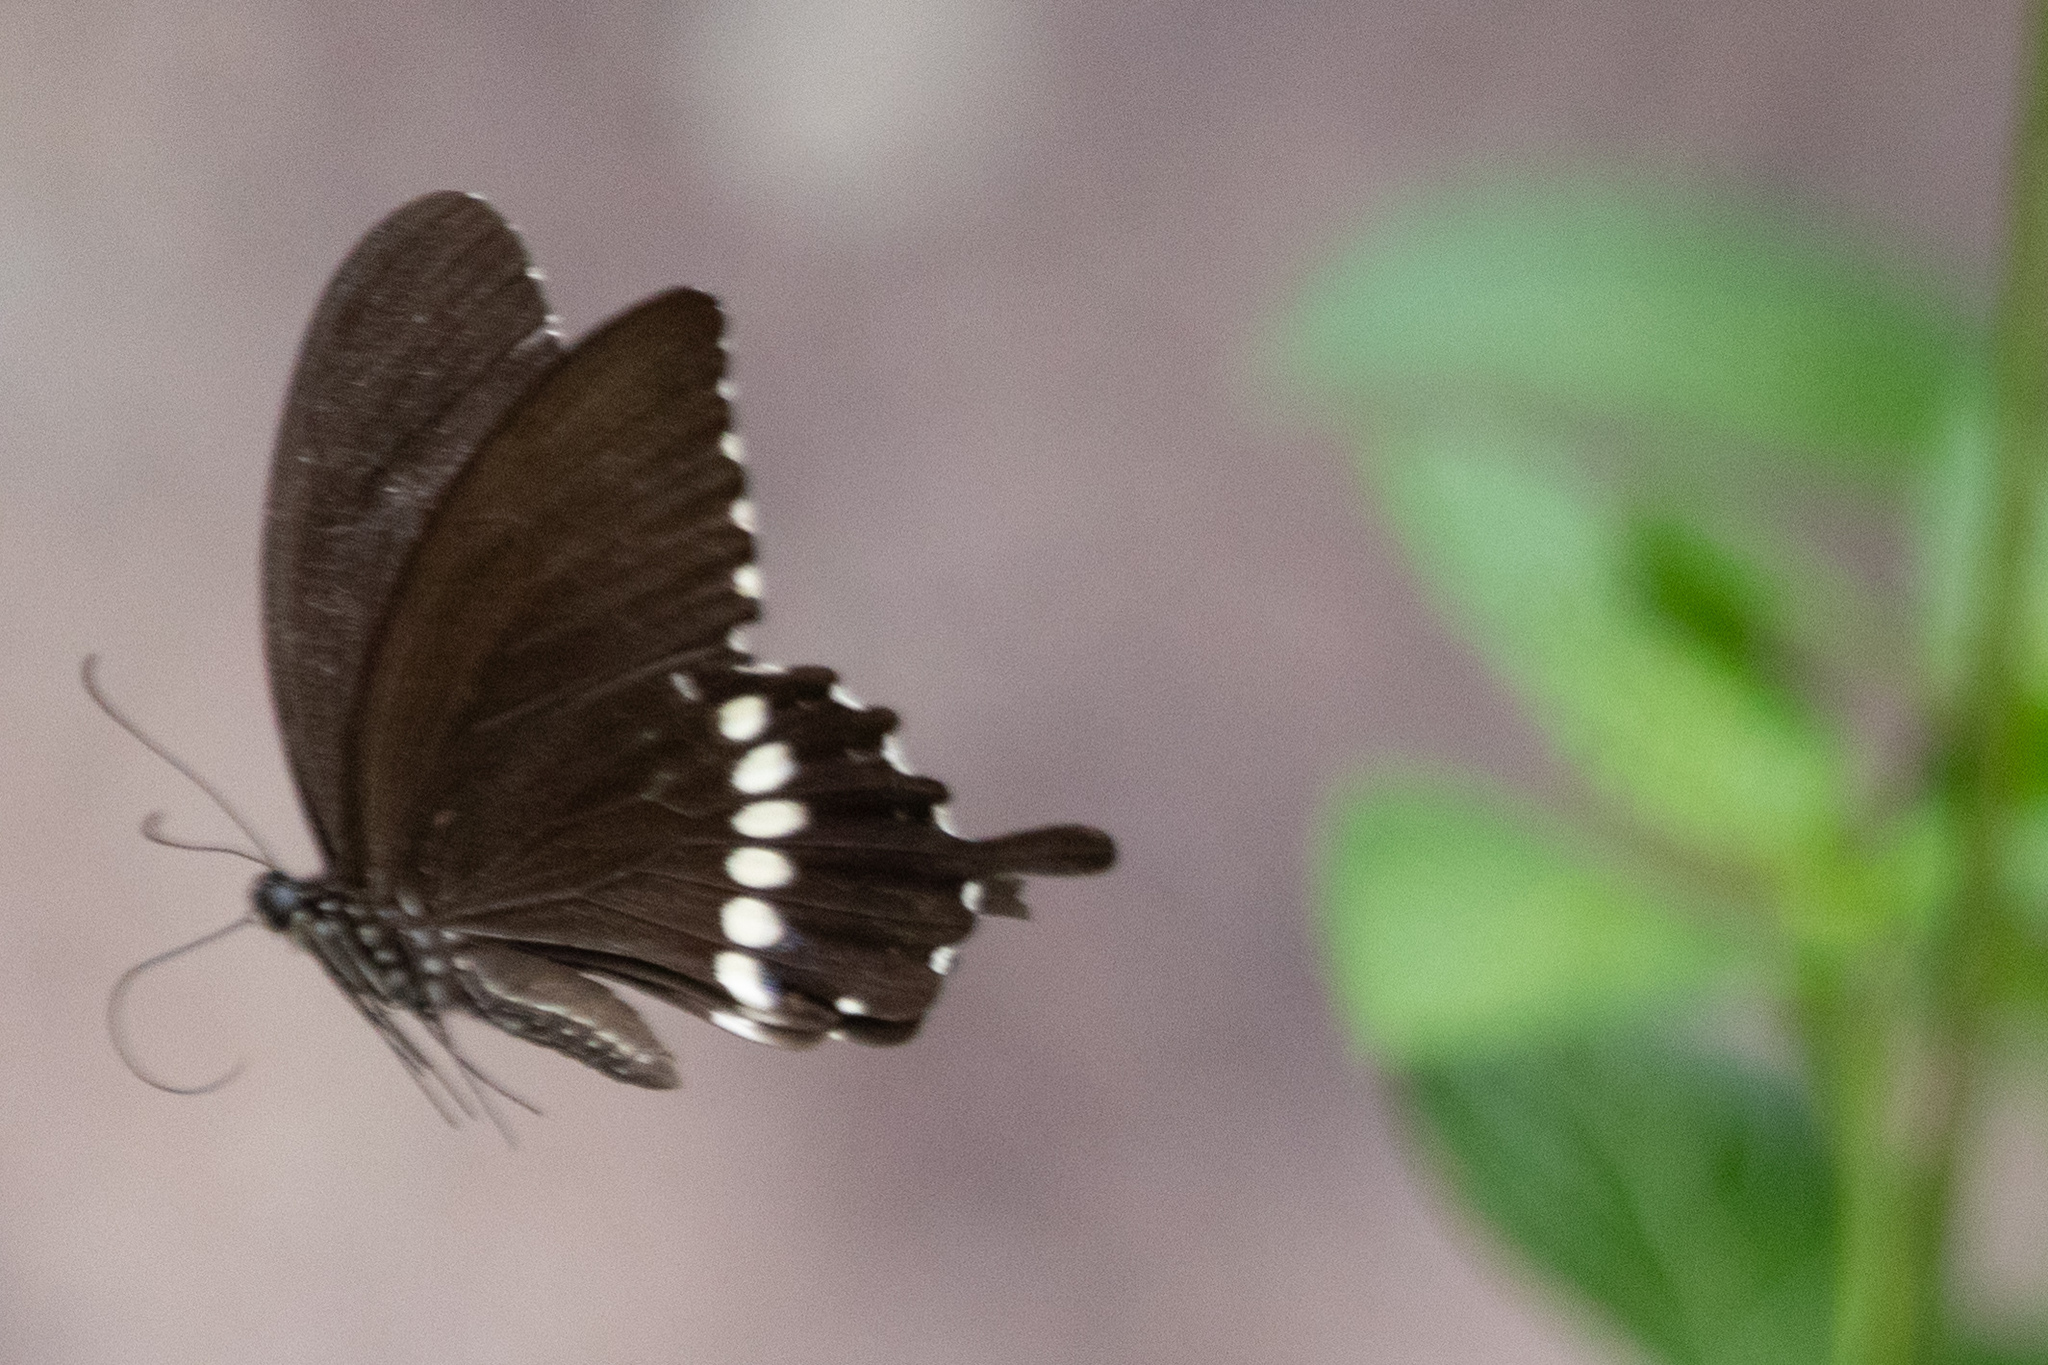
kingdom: Animalia
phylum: Arthropoda
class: Insecta
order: Lepidoptera
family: Papilionidae
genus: Papilio
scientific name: Papilio polytes
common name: Common mormon
